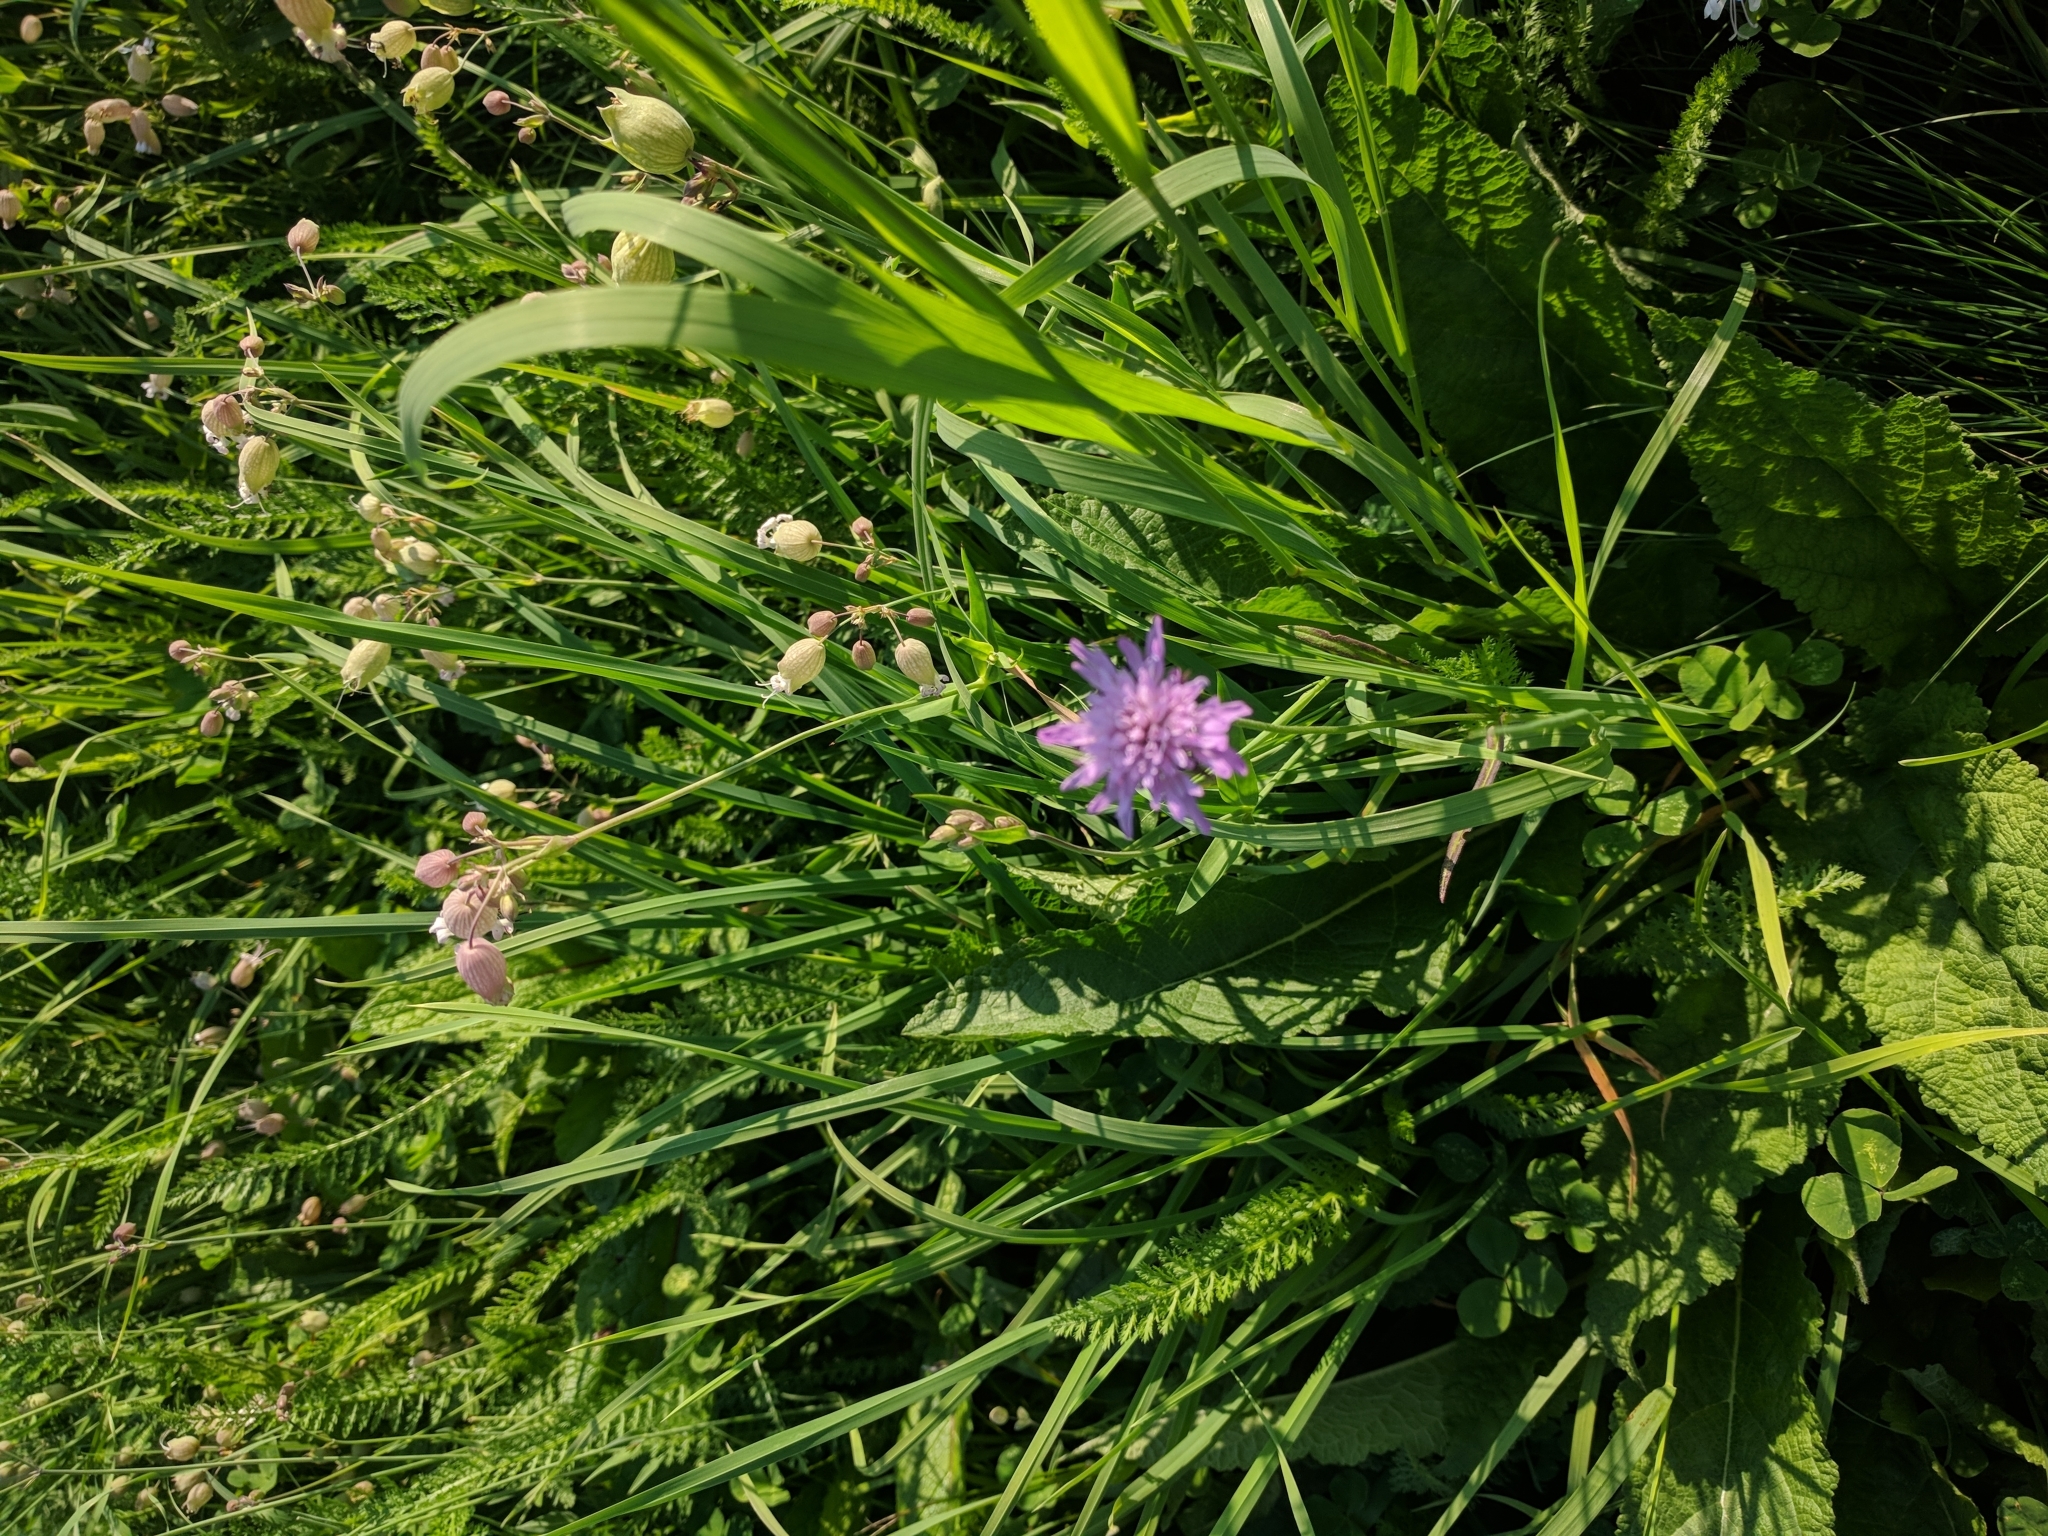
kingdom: Plantae
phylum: Tracheophyta
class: Magnoliopsida
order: Dipsacales
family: Caprifoliaceae
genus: Knautia
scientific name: Knautia arvensis
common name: Field scabiosa
